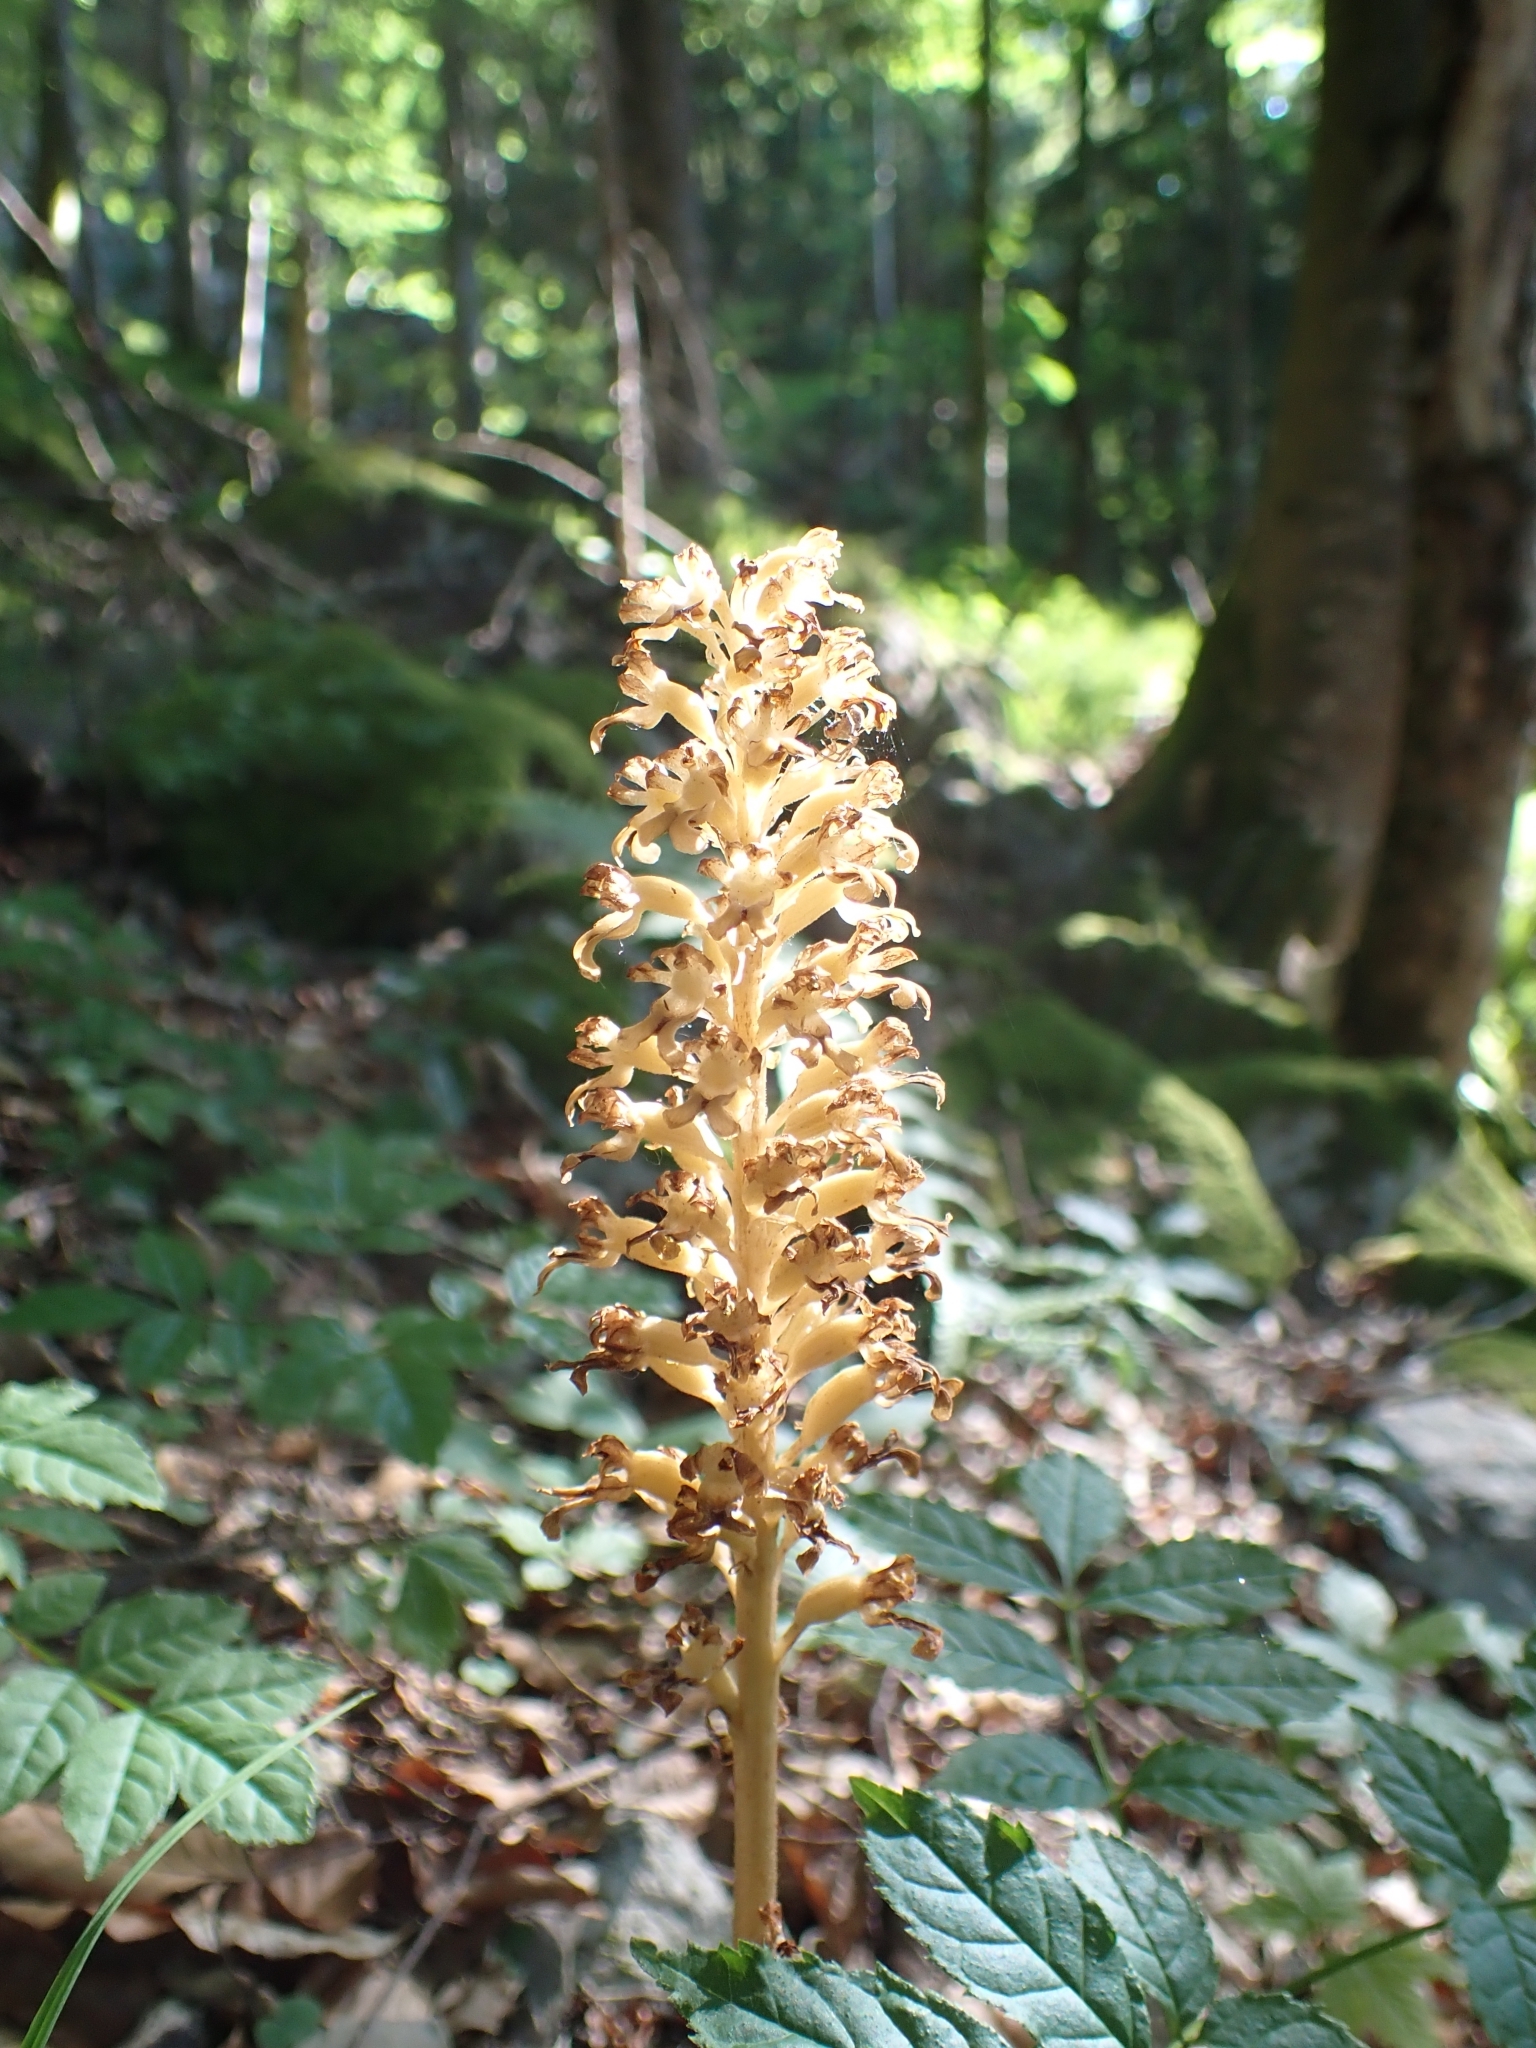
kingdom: Plantae
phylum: Tracheophyta
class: Liliopsida
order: Asparagales
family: Orchidaceae
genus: Neottia
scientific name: Neottia nidus-avis
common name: Bird's-nest orchid
